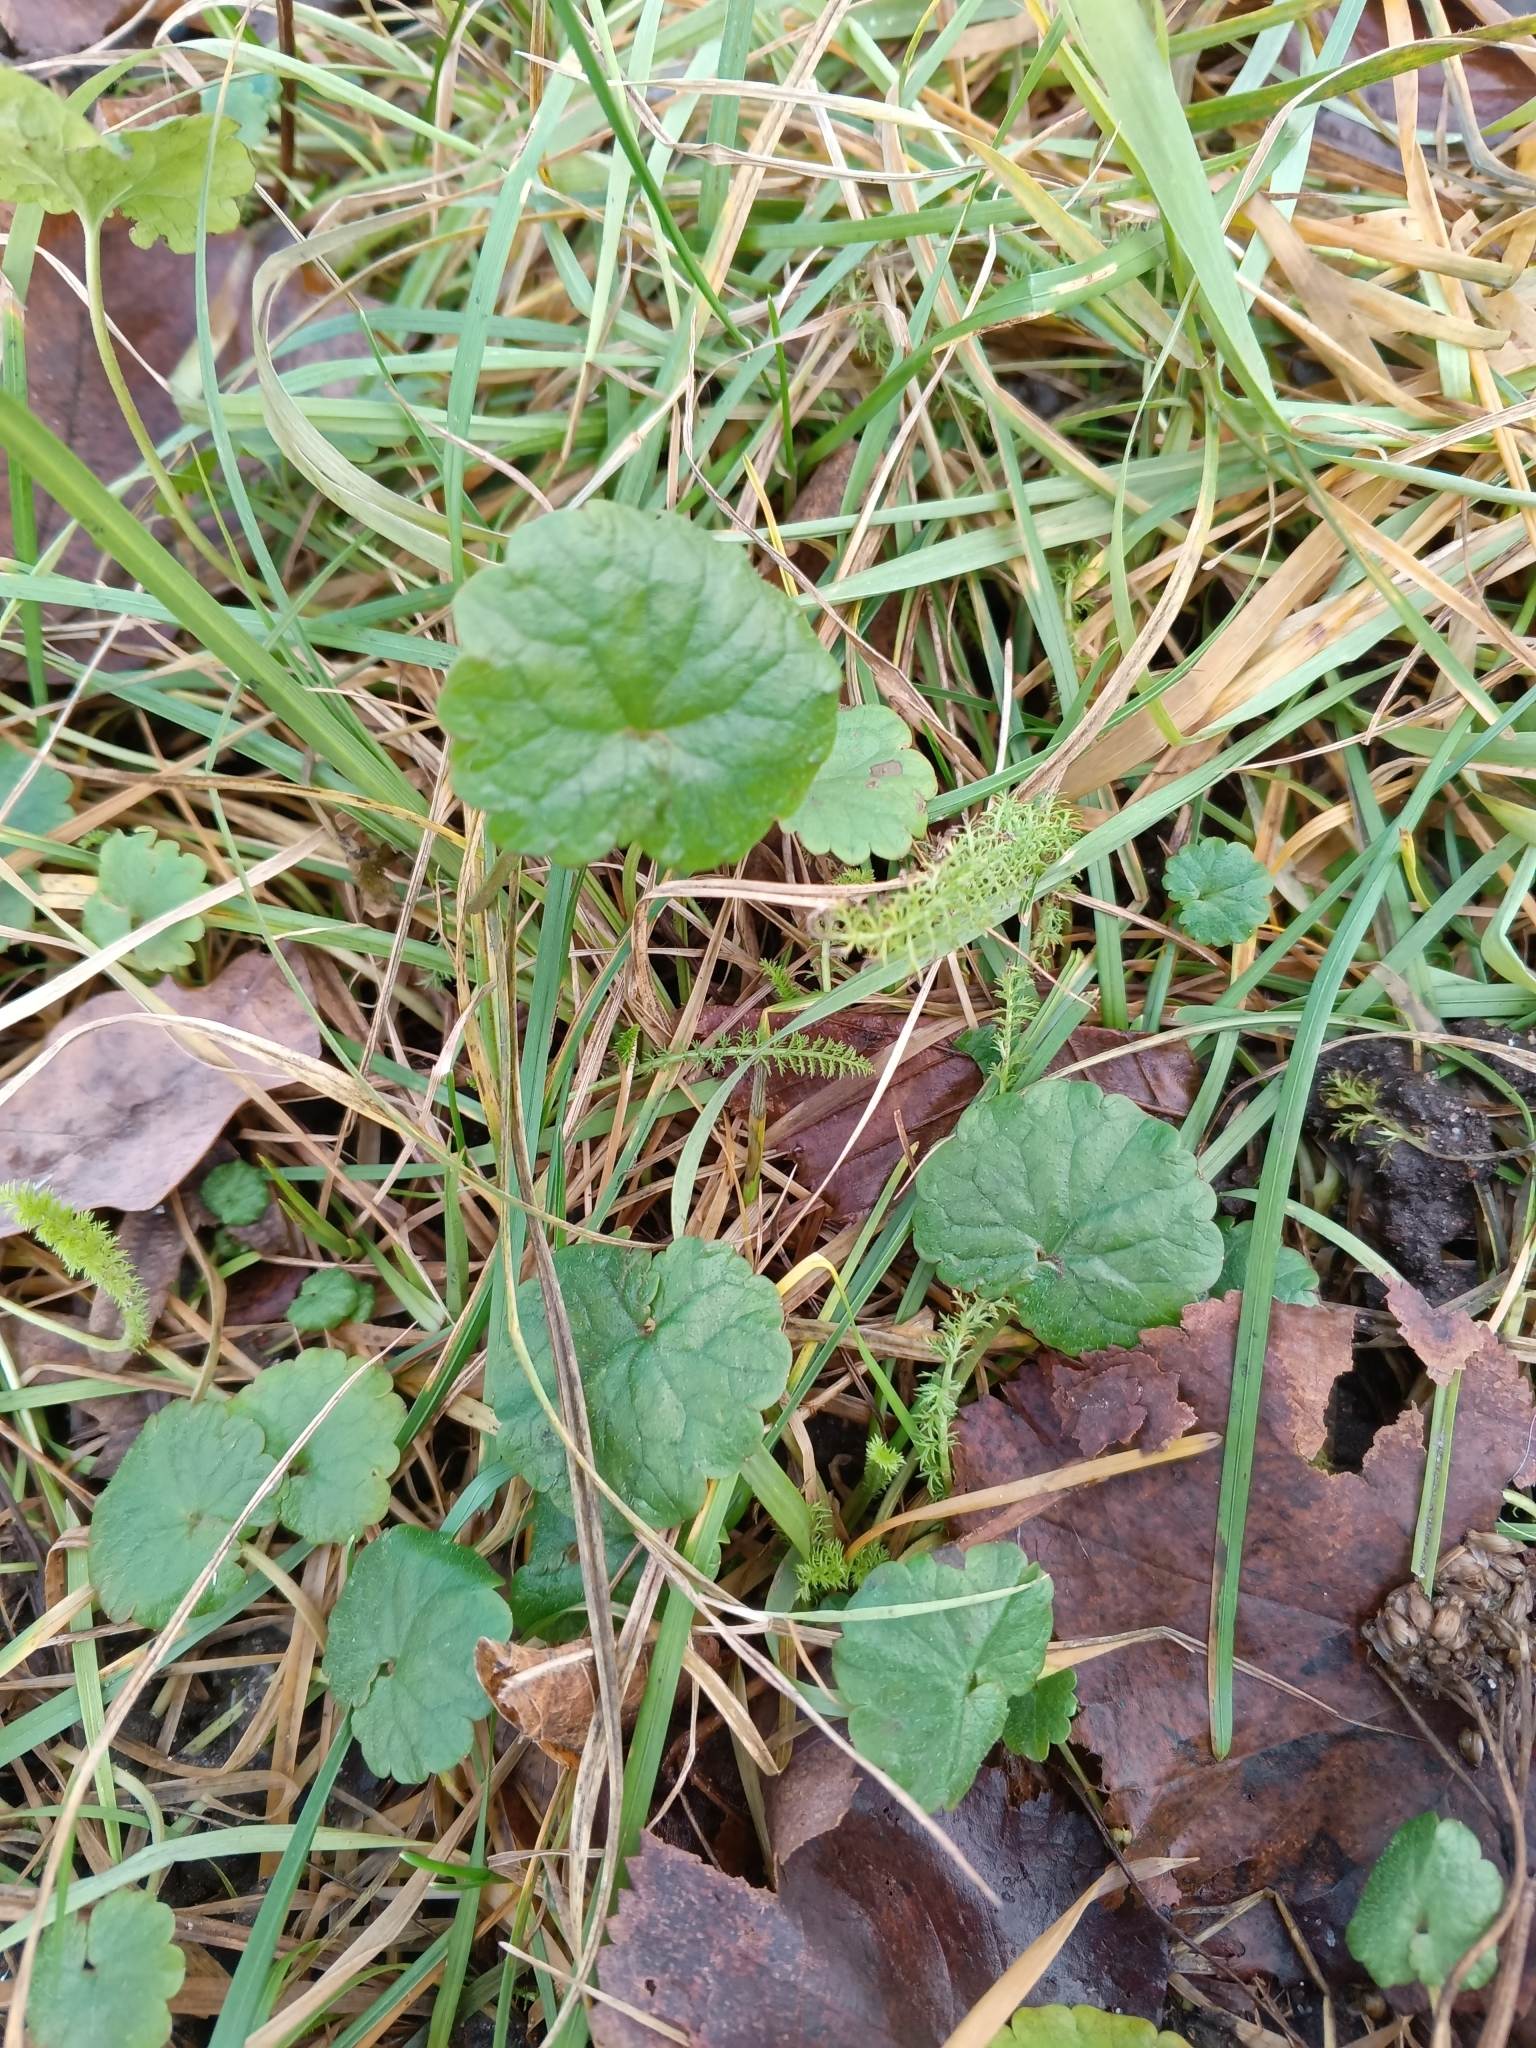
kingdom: Plantae
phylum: Tracheophyta
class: Magnoliopsida
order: Lamiales
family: Lamiaceae
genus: Glechoma
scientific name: Glechoma hederacea
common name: Ground ivy
